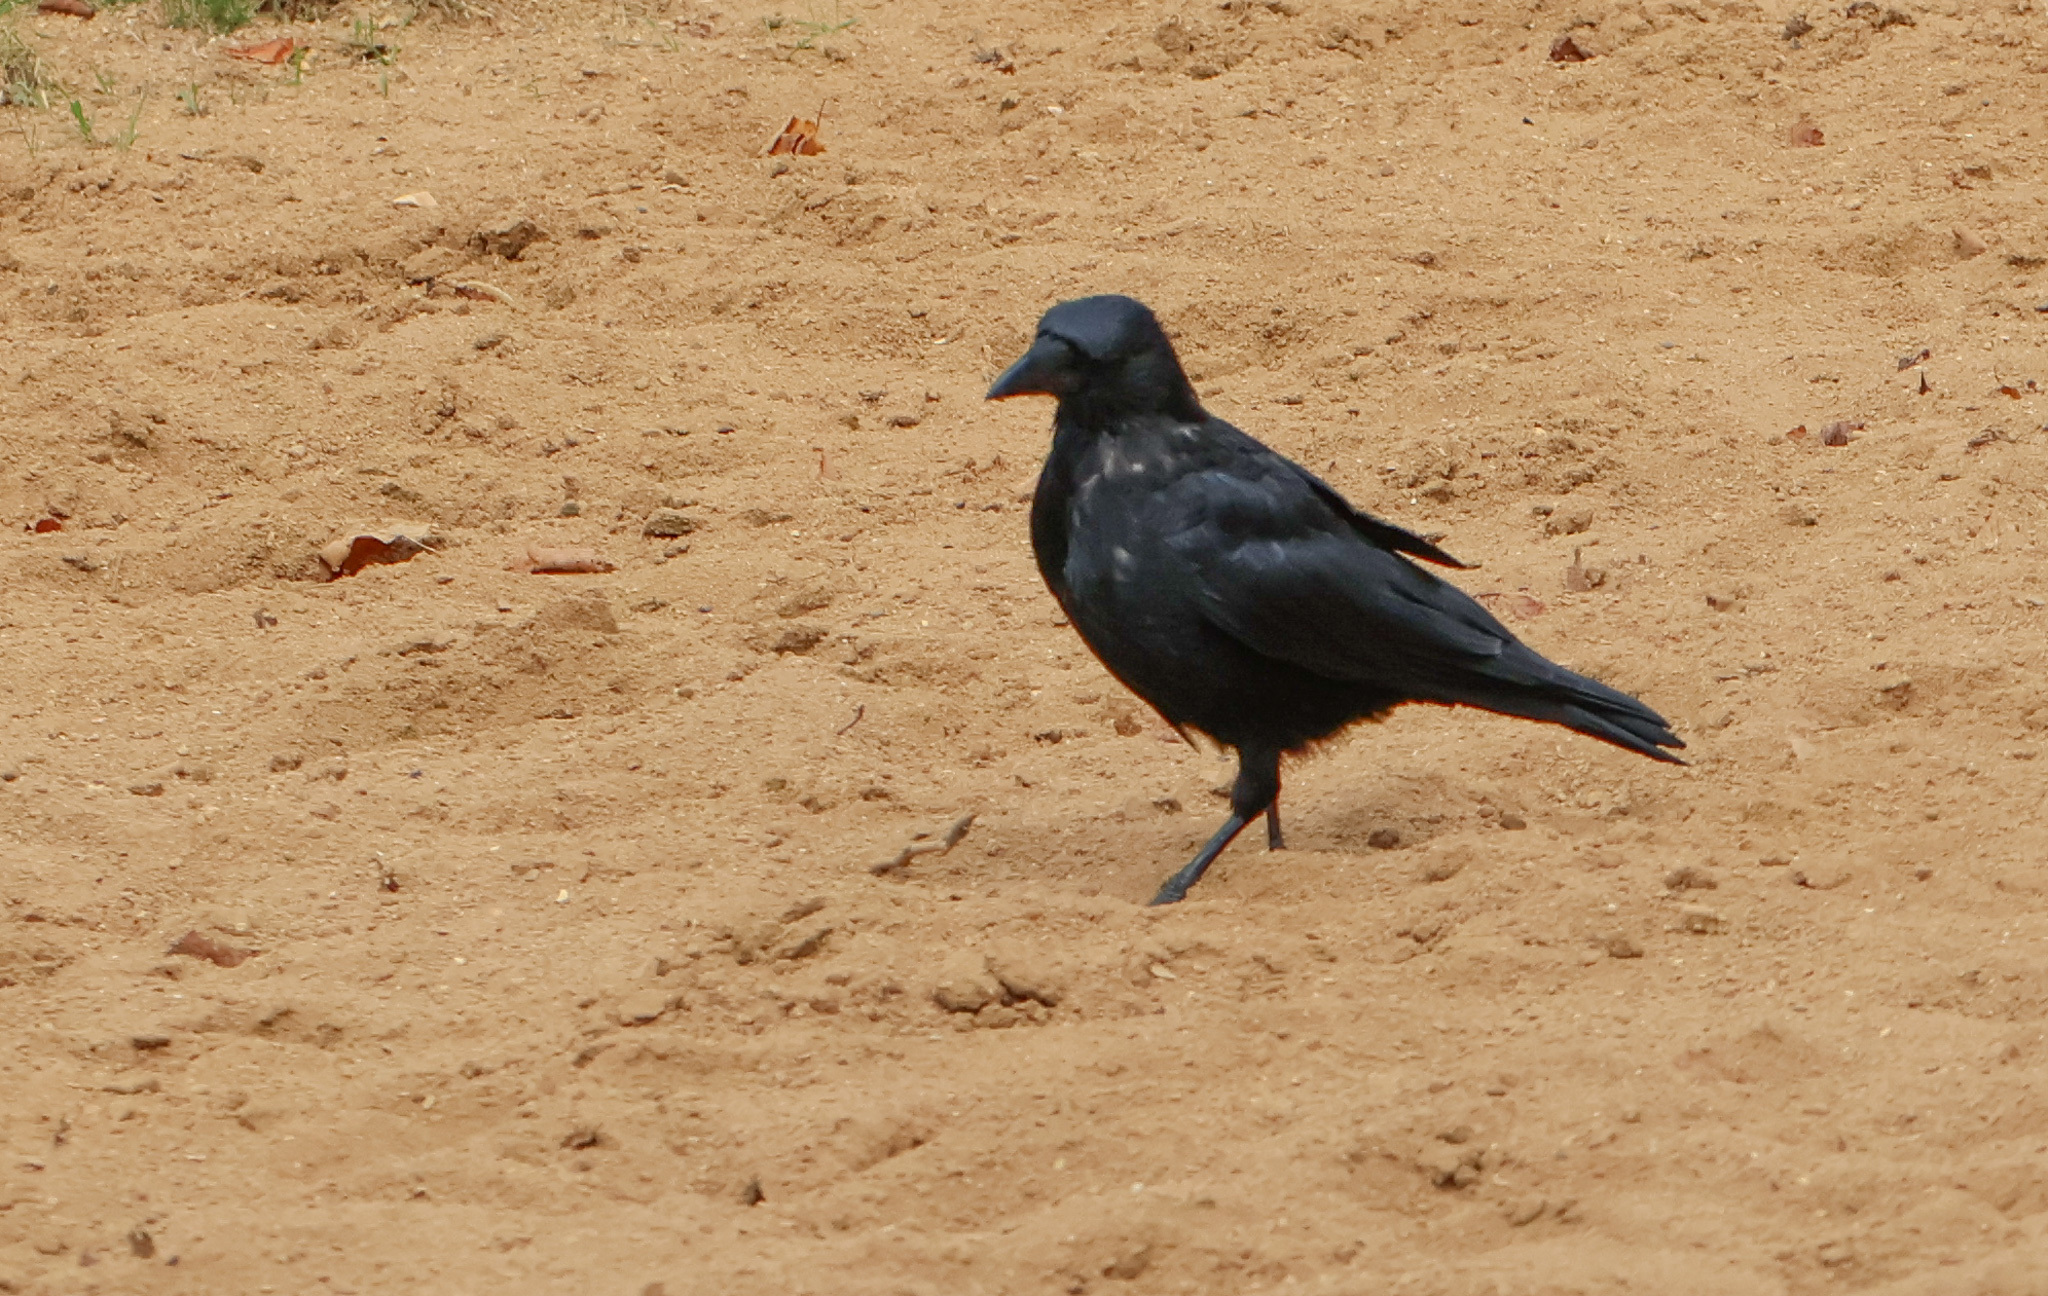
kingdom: Animalia
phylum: Chordata
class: Aves
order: Passeriformes
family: Corvidae
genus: Corvus
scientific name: Corvus corone
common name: Carrion crow
